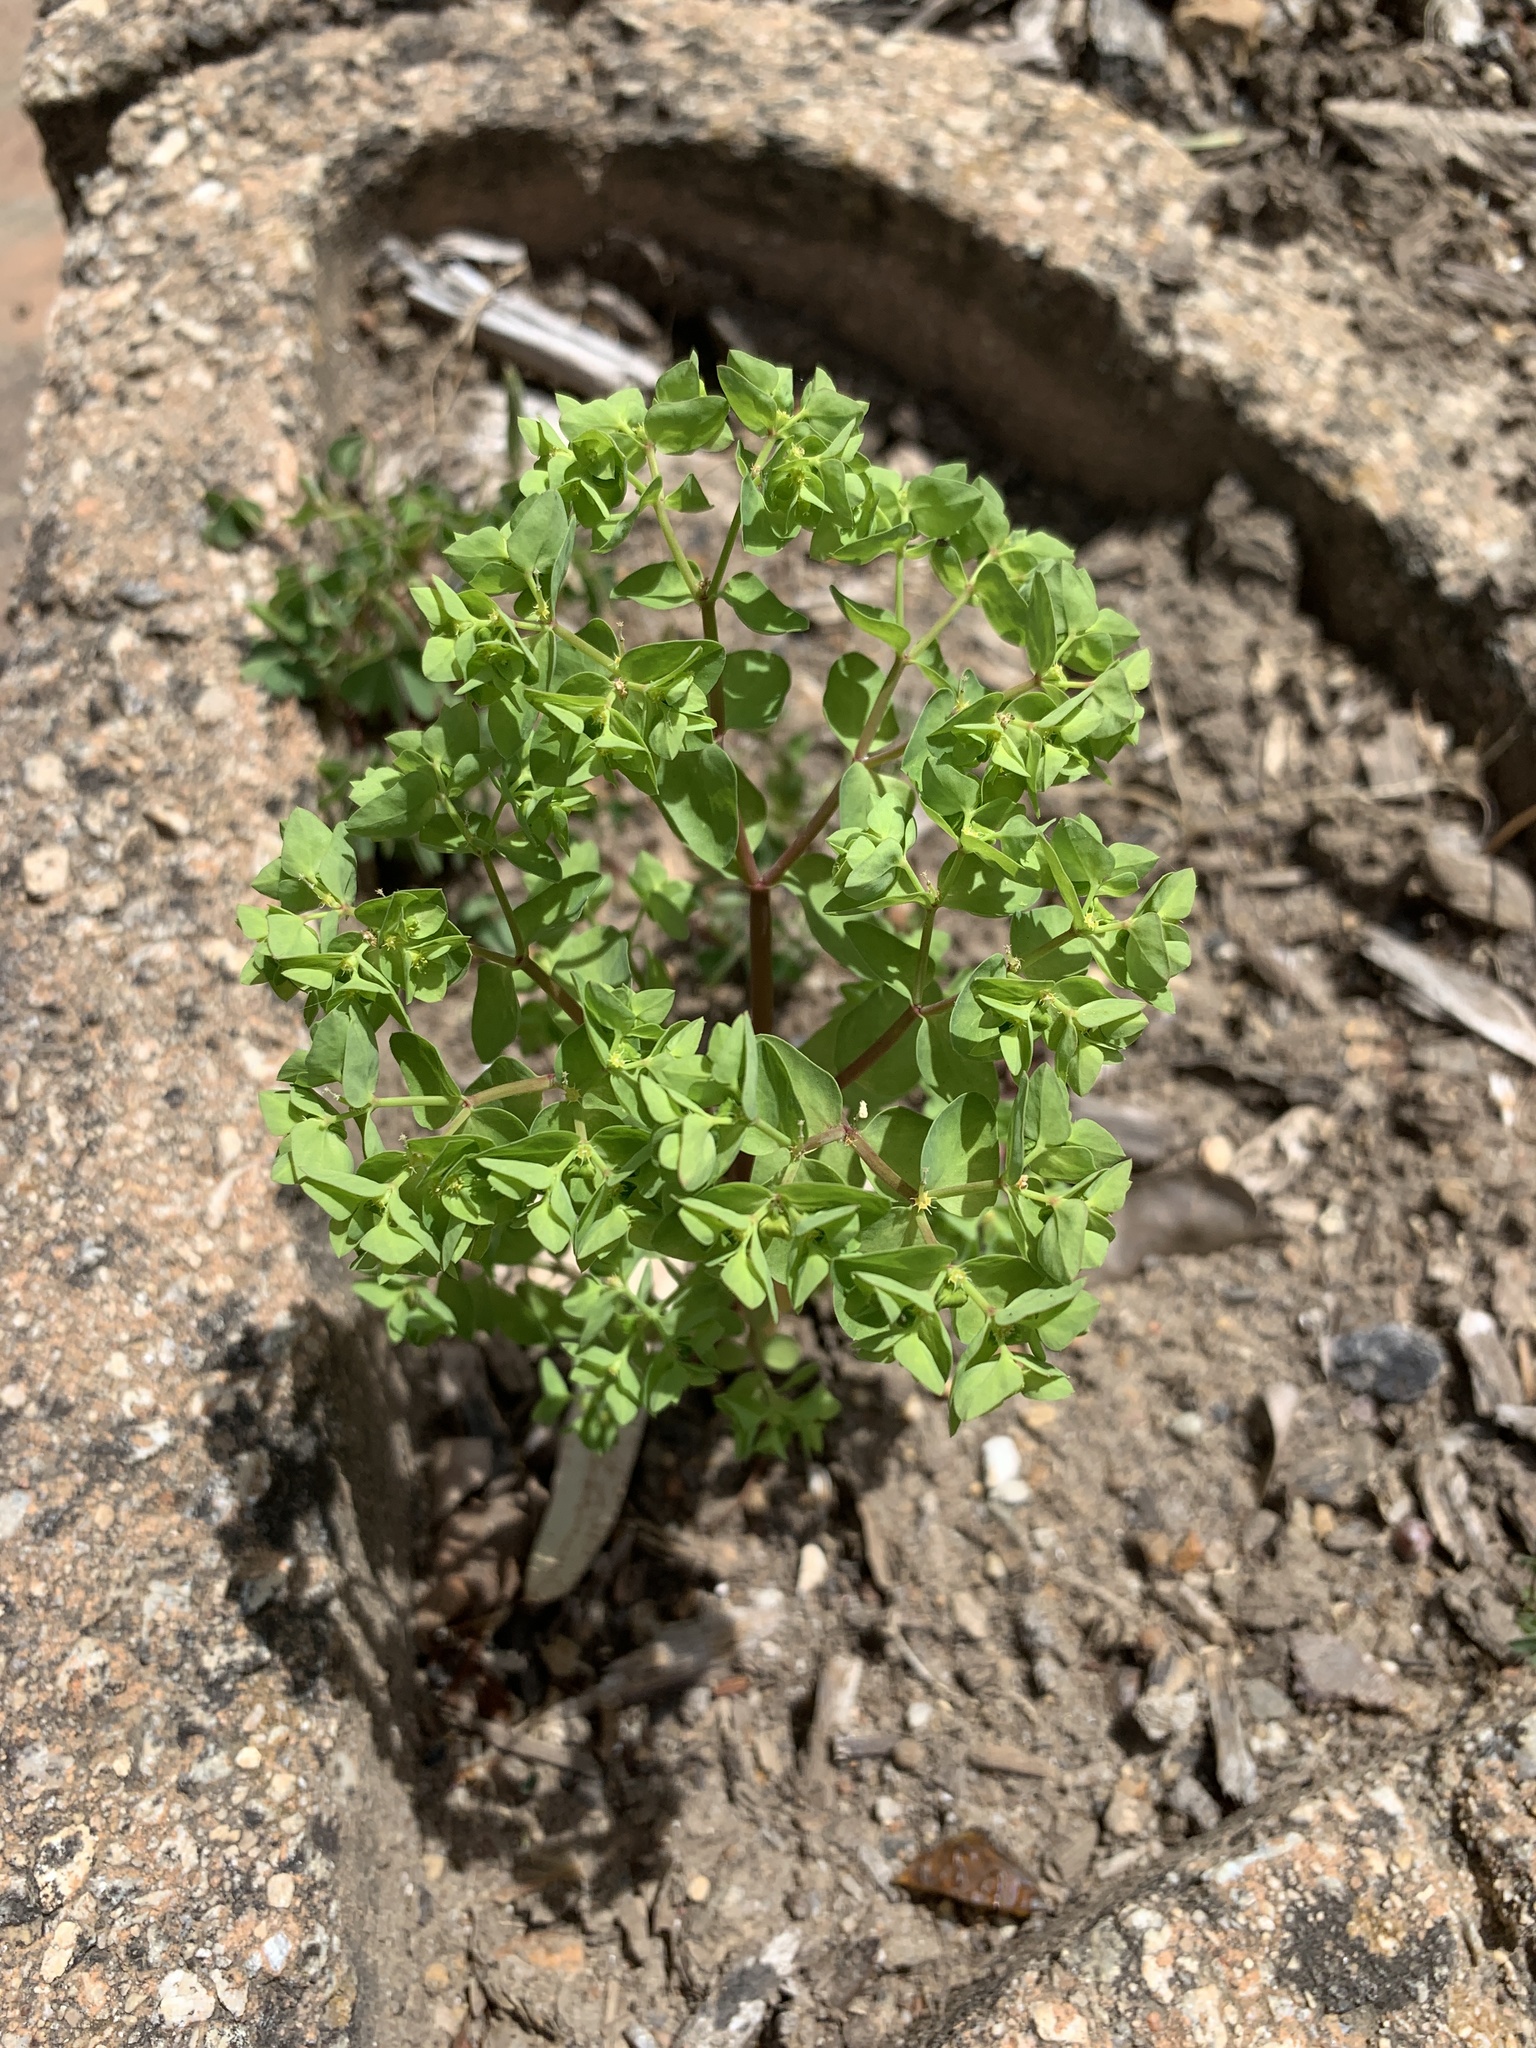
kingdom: Plantae
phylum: Tracheophyta
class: Magnoliopsida
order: Malpighiales
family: Euphorbiaceae
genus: Euphorbia
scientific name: Euphorbia peplus
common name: Petty spurge
